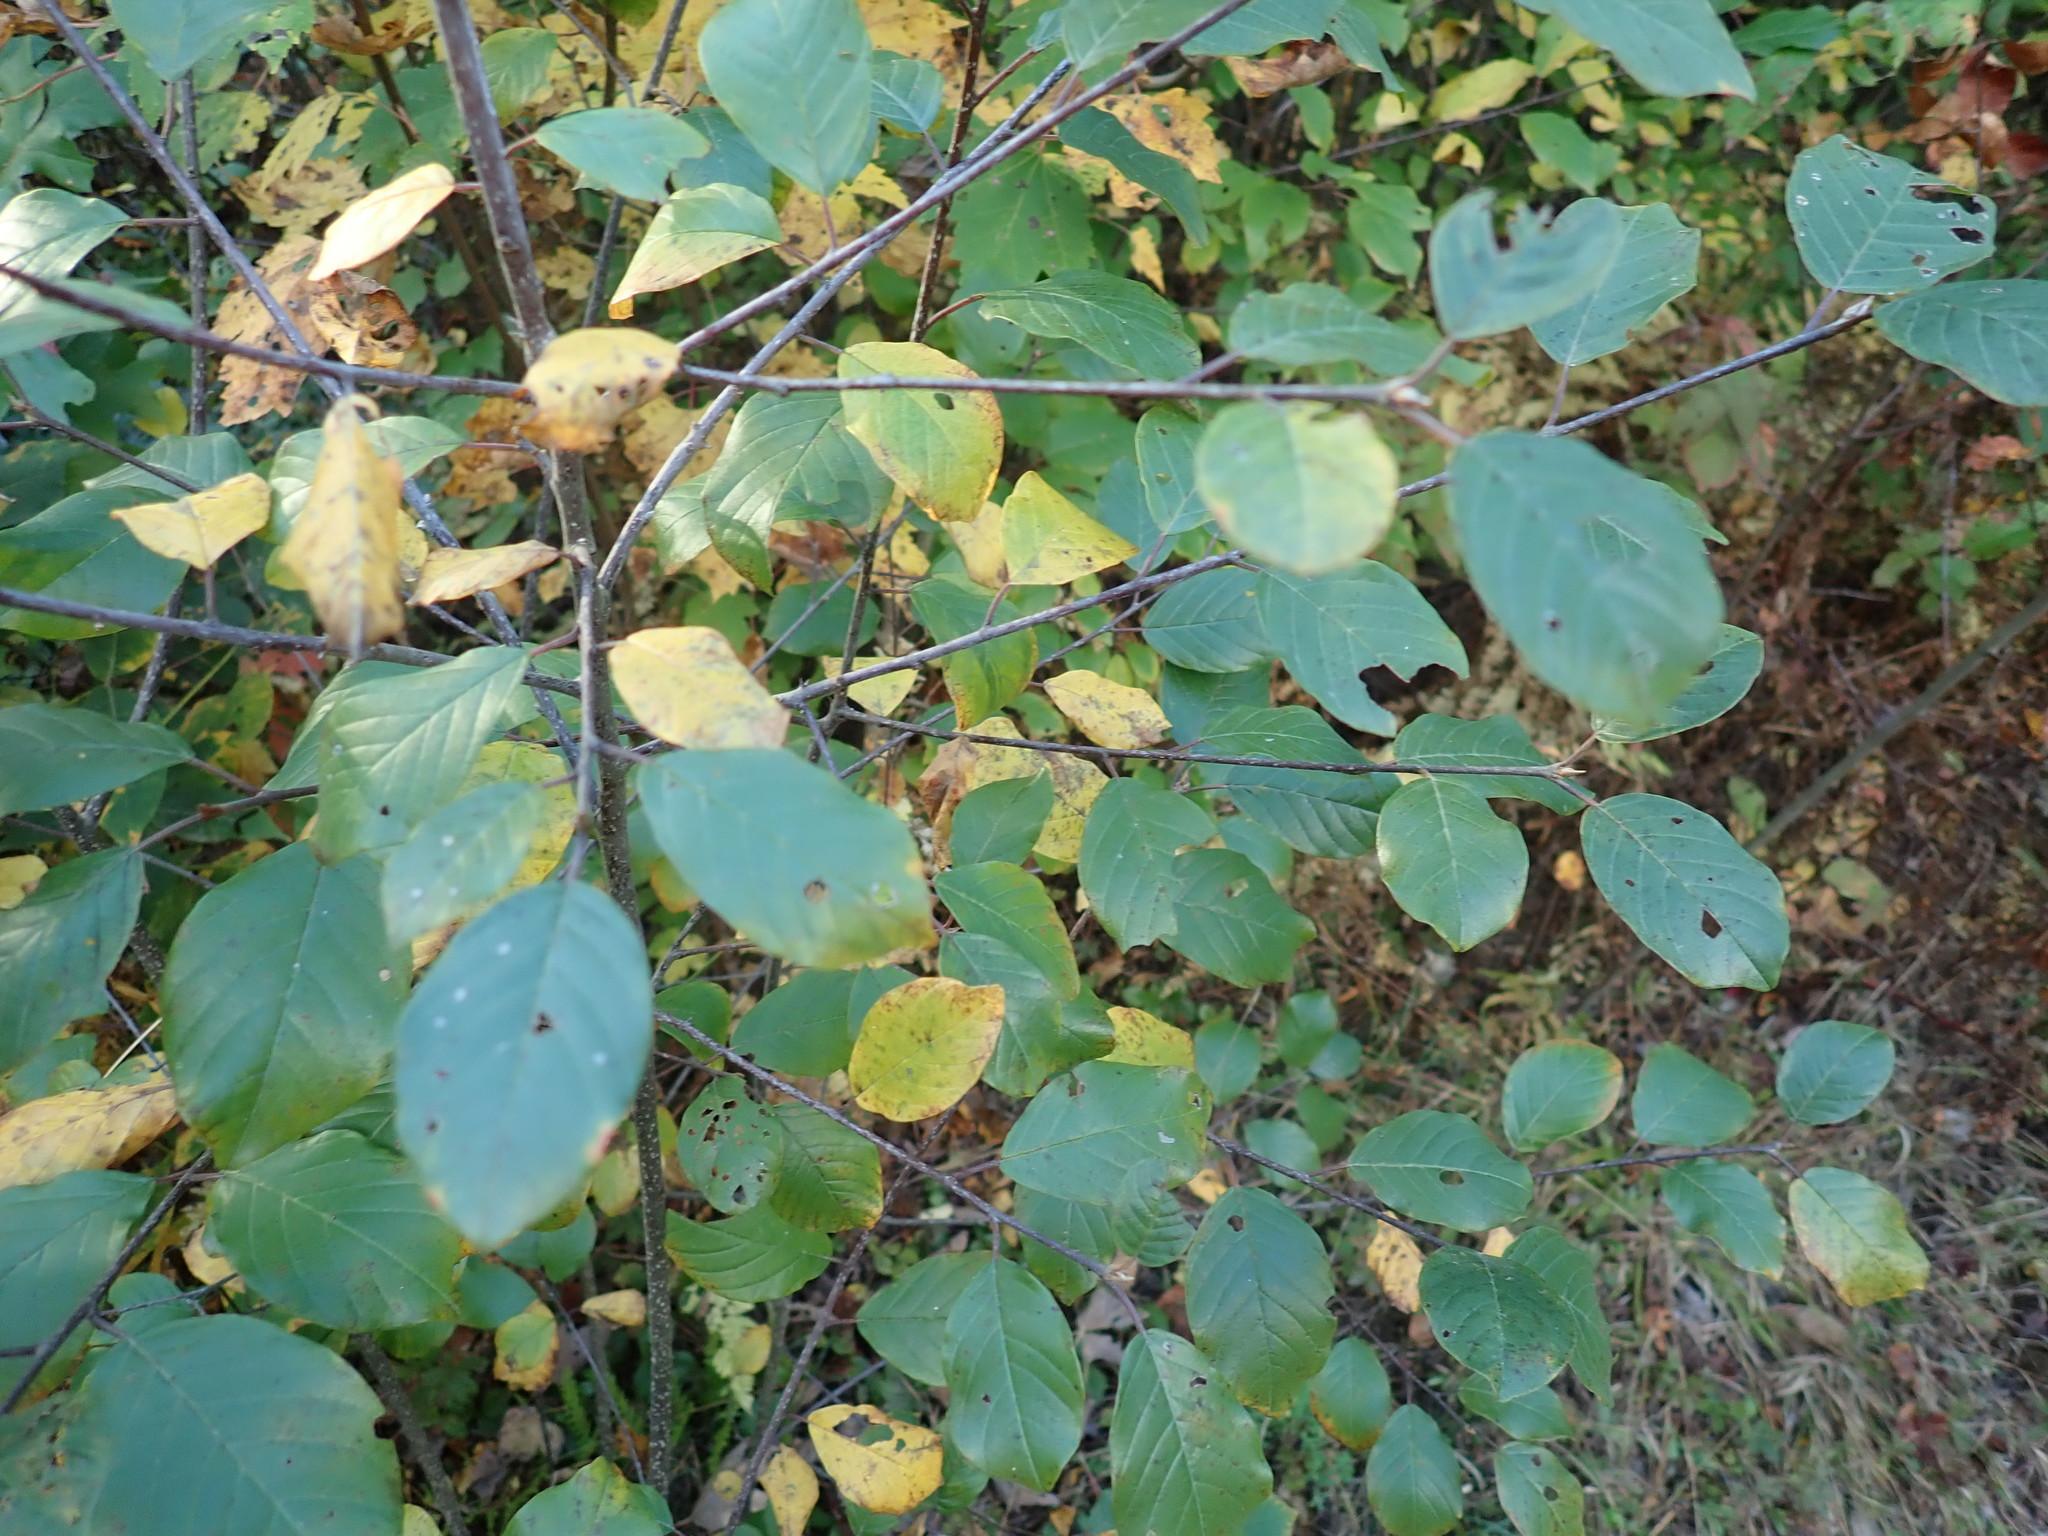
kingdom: Plantae
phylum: Tracheophyta
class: Magnoliopsida
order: Rosales
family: Rhamnaceae
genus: Frangula
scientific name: Frangula alnus
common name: Alder buckthorn
